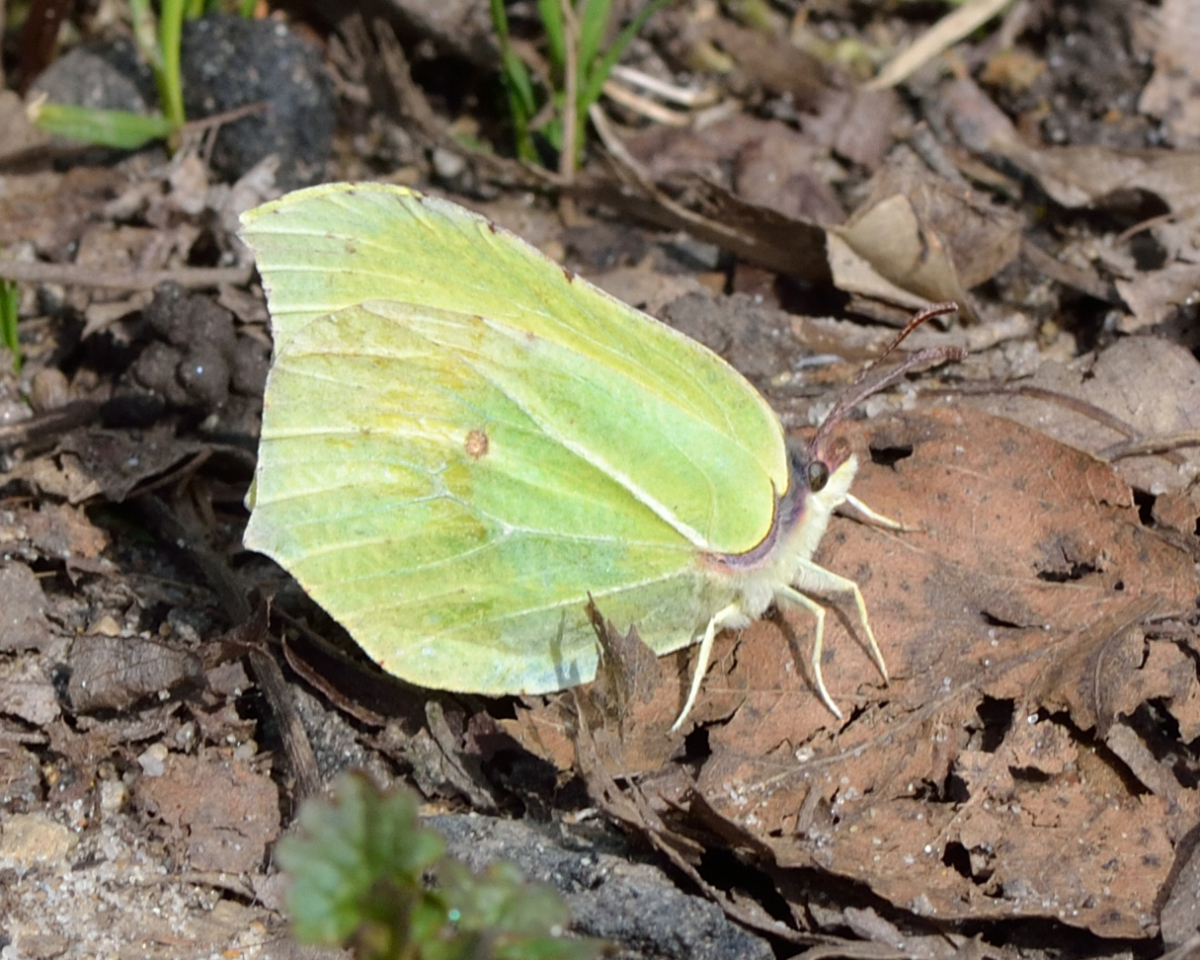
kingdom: Animalia
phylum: Arthropoda
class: Insecta
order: Lepidoptera
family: Pieridae
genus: Gonepteryx
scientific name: Gonepteryx rhamni
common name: Brimstone
